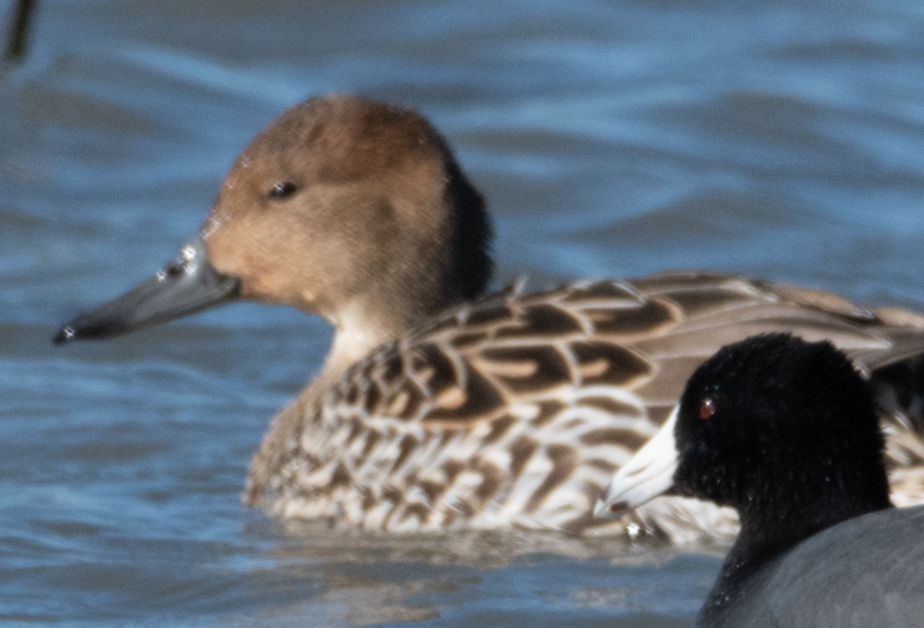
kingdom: Animalia
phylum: Chordata
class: Aves
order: Anseriformes
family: Anatidae
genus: Anas
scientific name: Anas acuta
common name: Northern pintail
